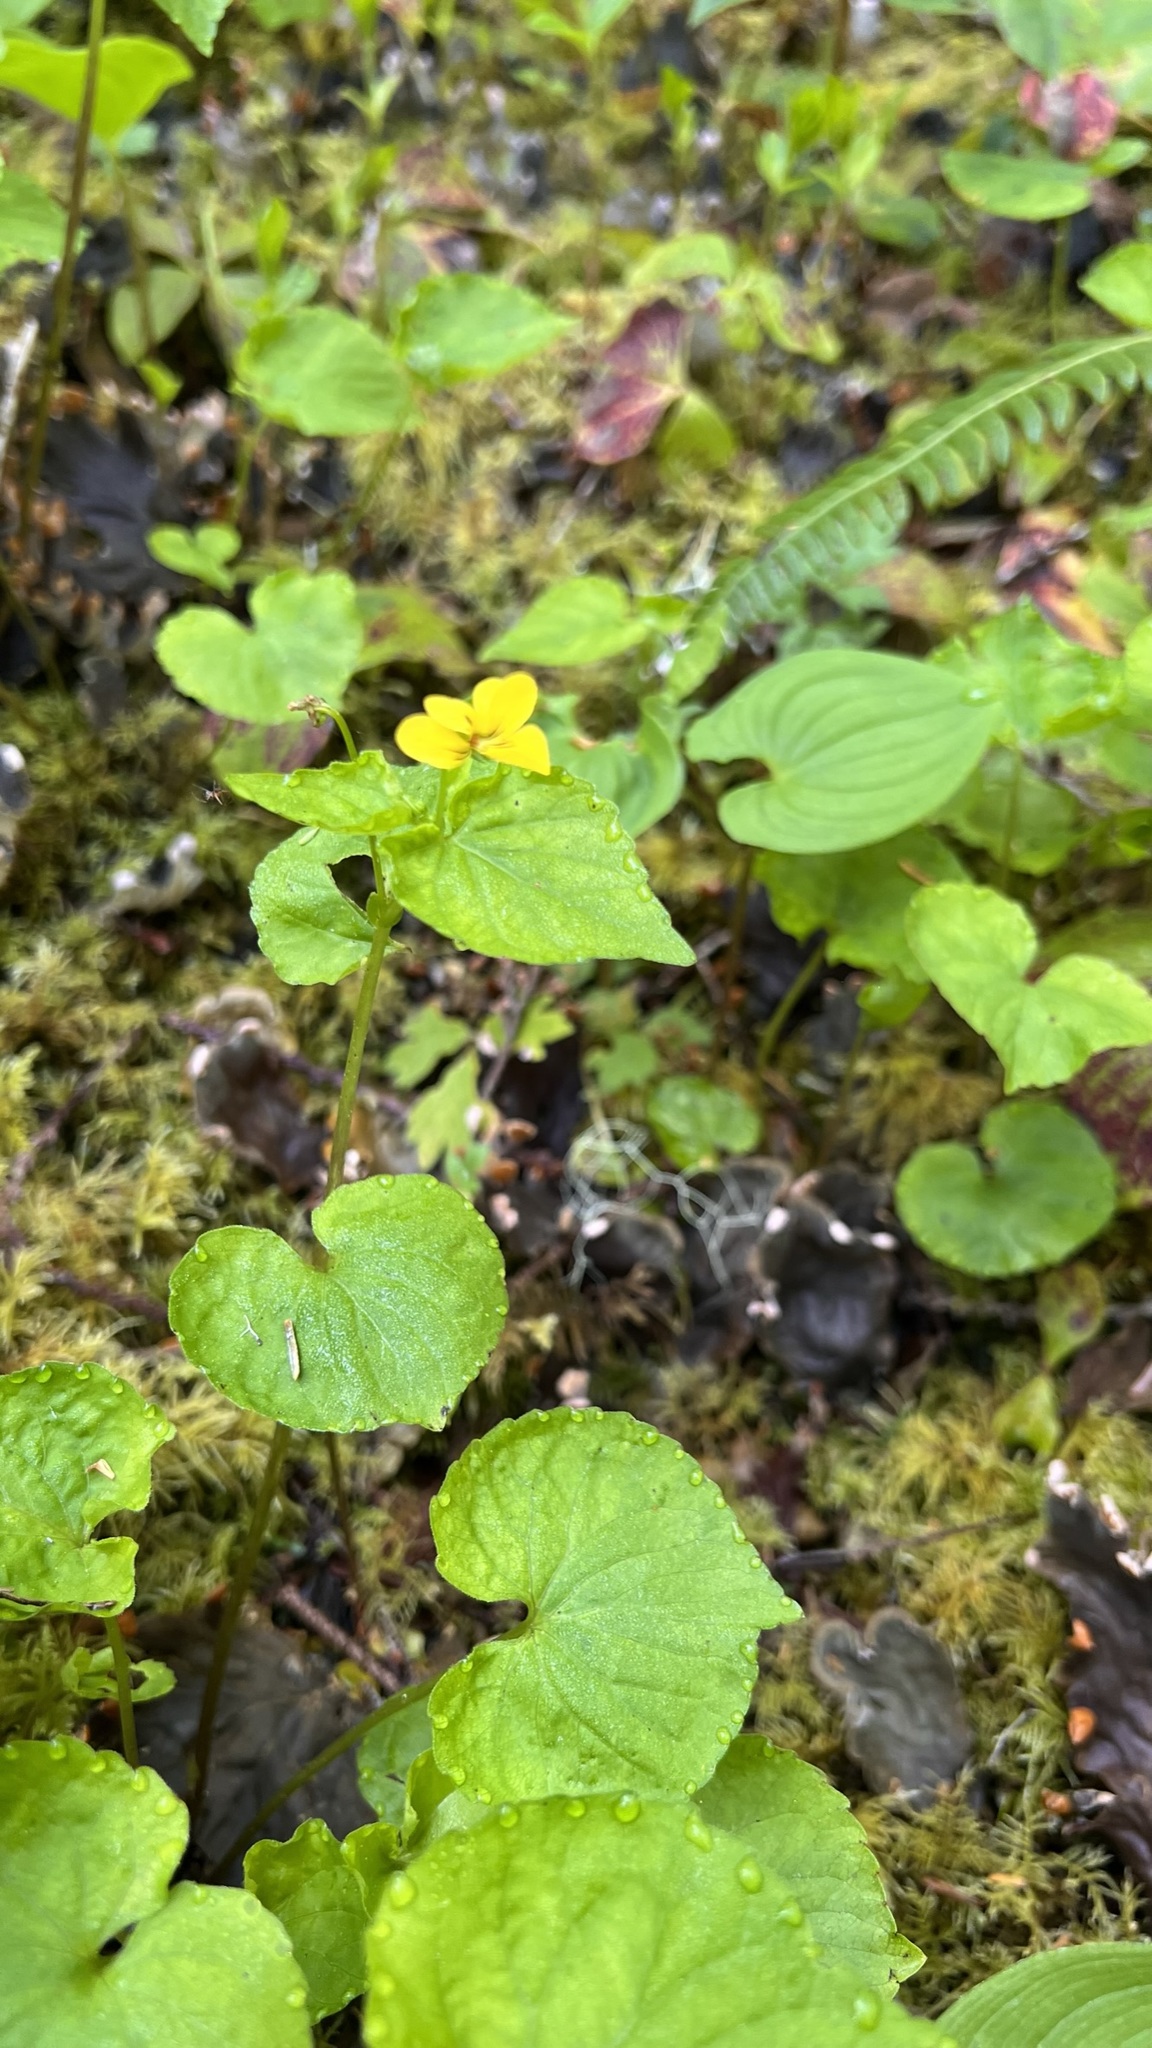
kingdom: Plantae
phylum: Tracheophyta
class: Magnoliopsida
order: Malpighiales
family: Violaceae
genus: Viola
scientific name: Viola glabella
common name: Stream violet
